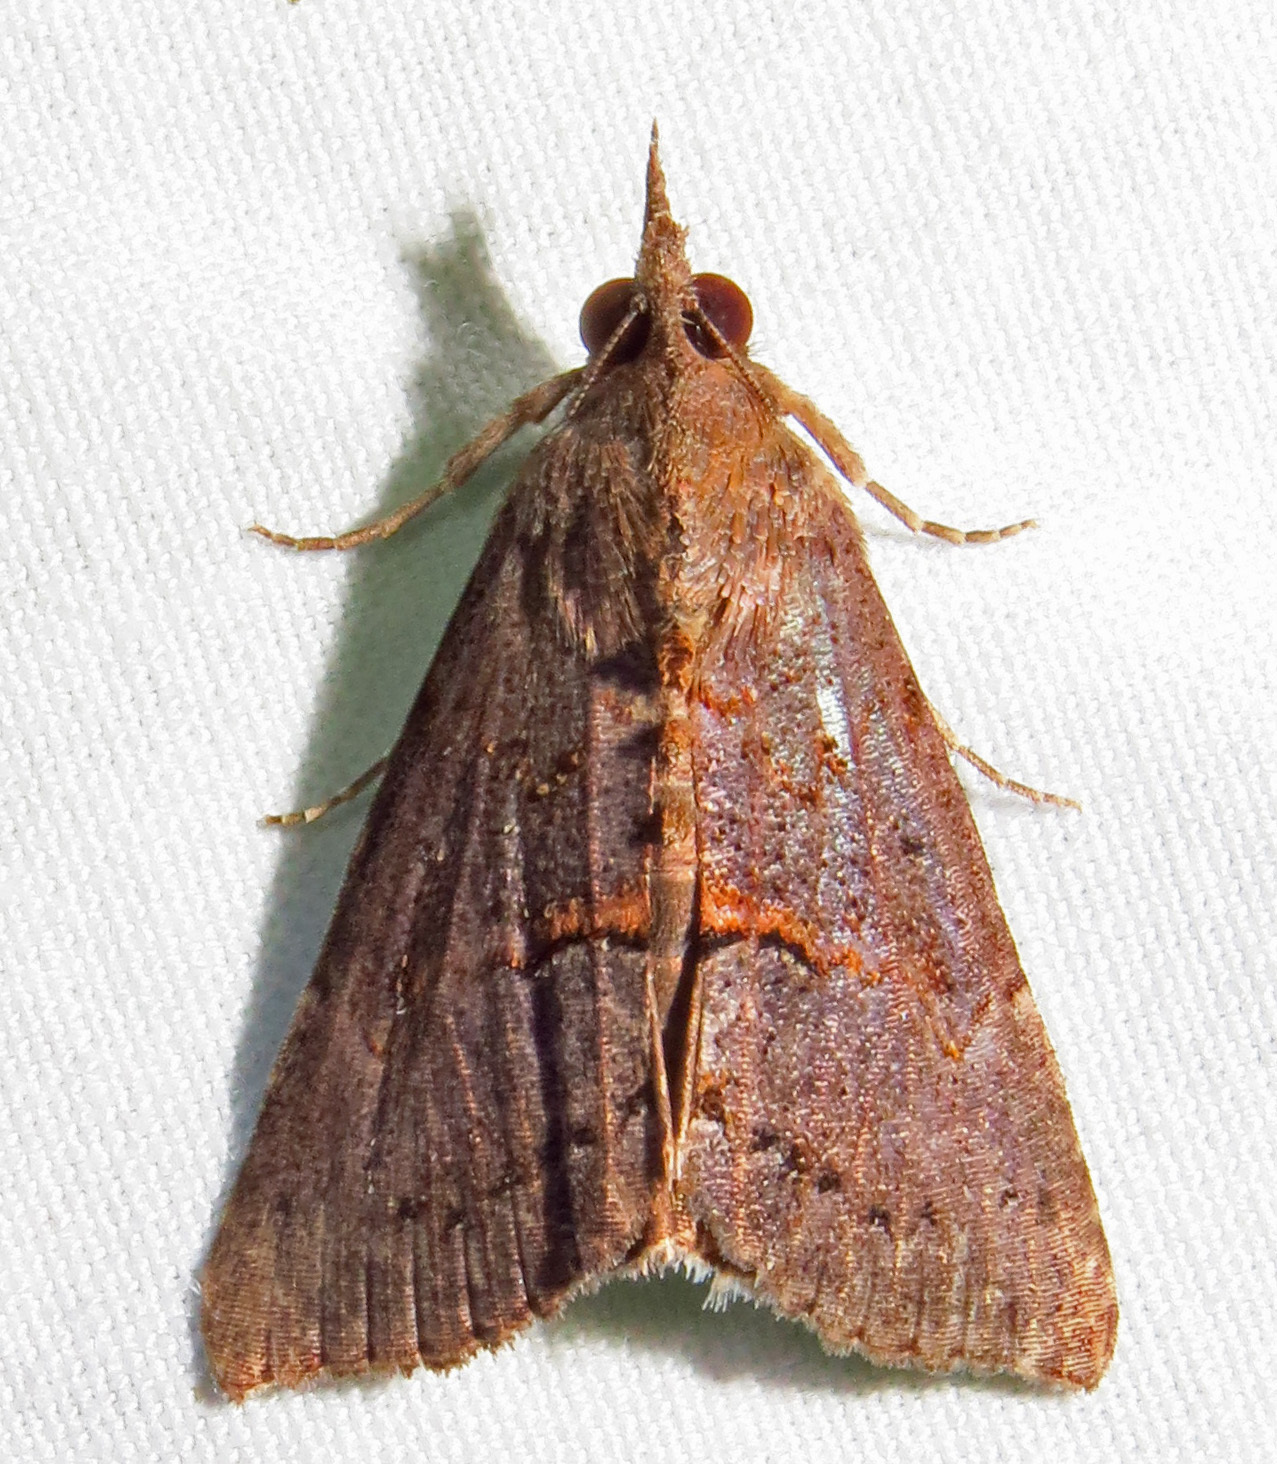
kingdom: Animalia
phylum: Arthropoda
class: Insecta
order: Lepidoptera
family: Erebidae
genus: Hypena
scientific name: Hypena scabra
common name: Green cloverworm
